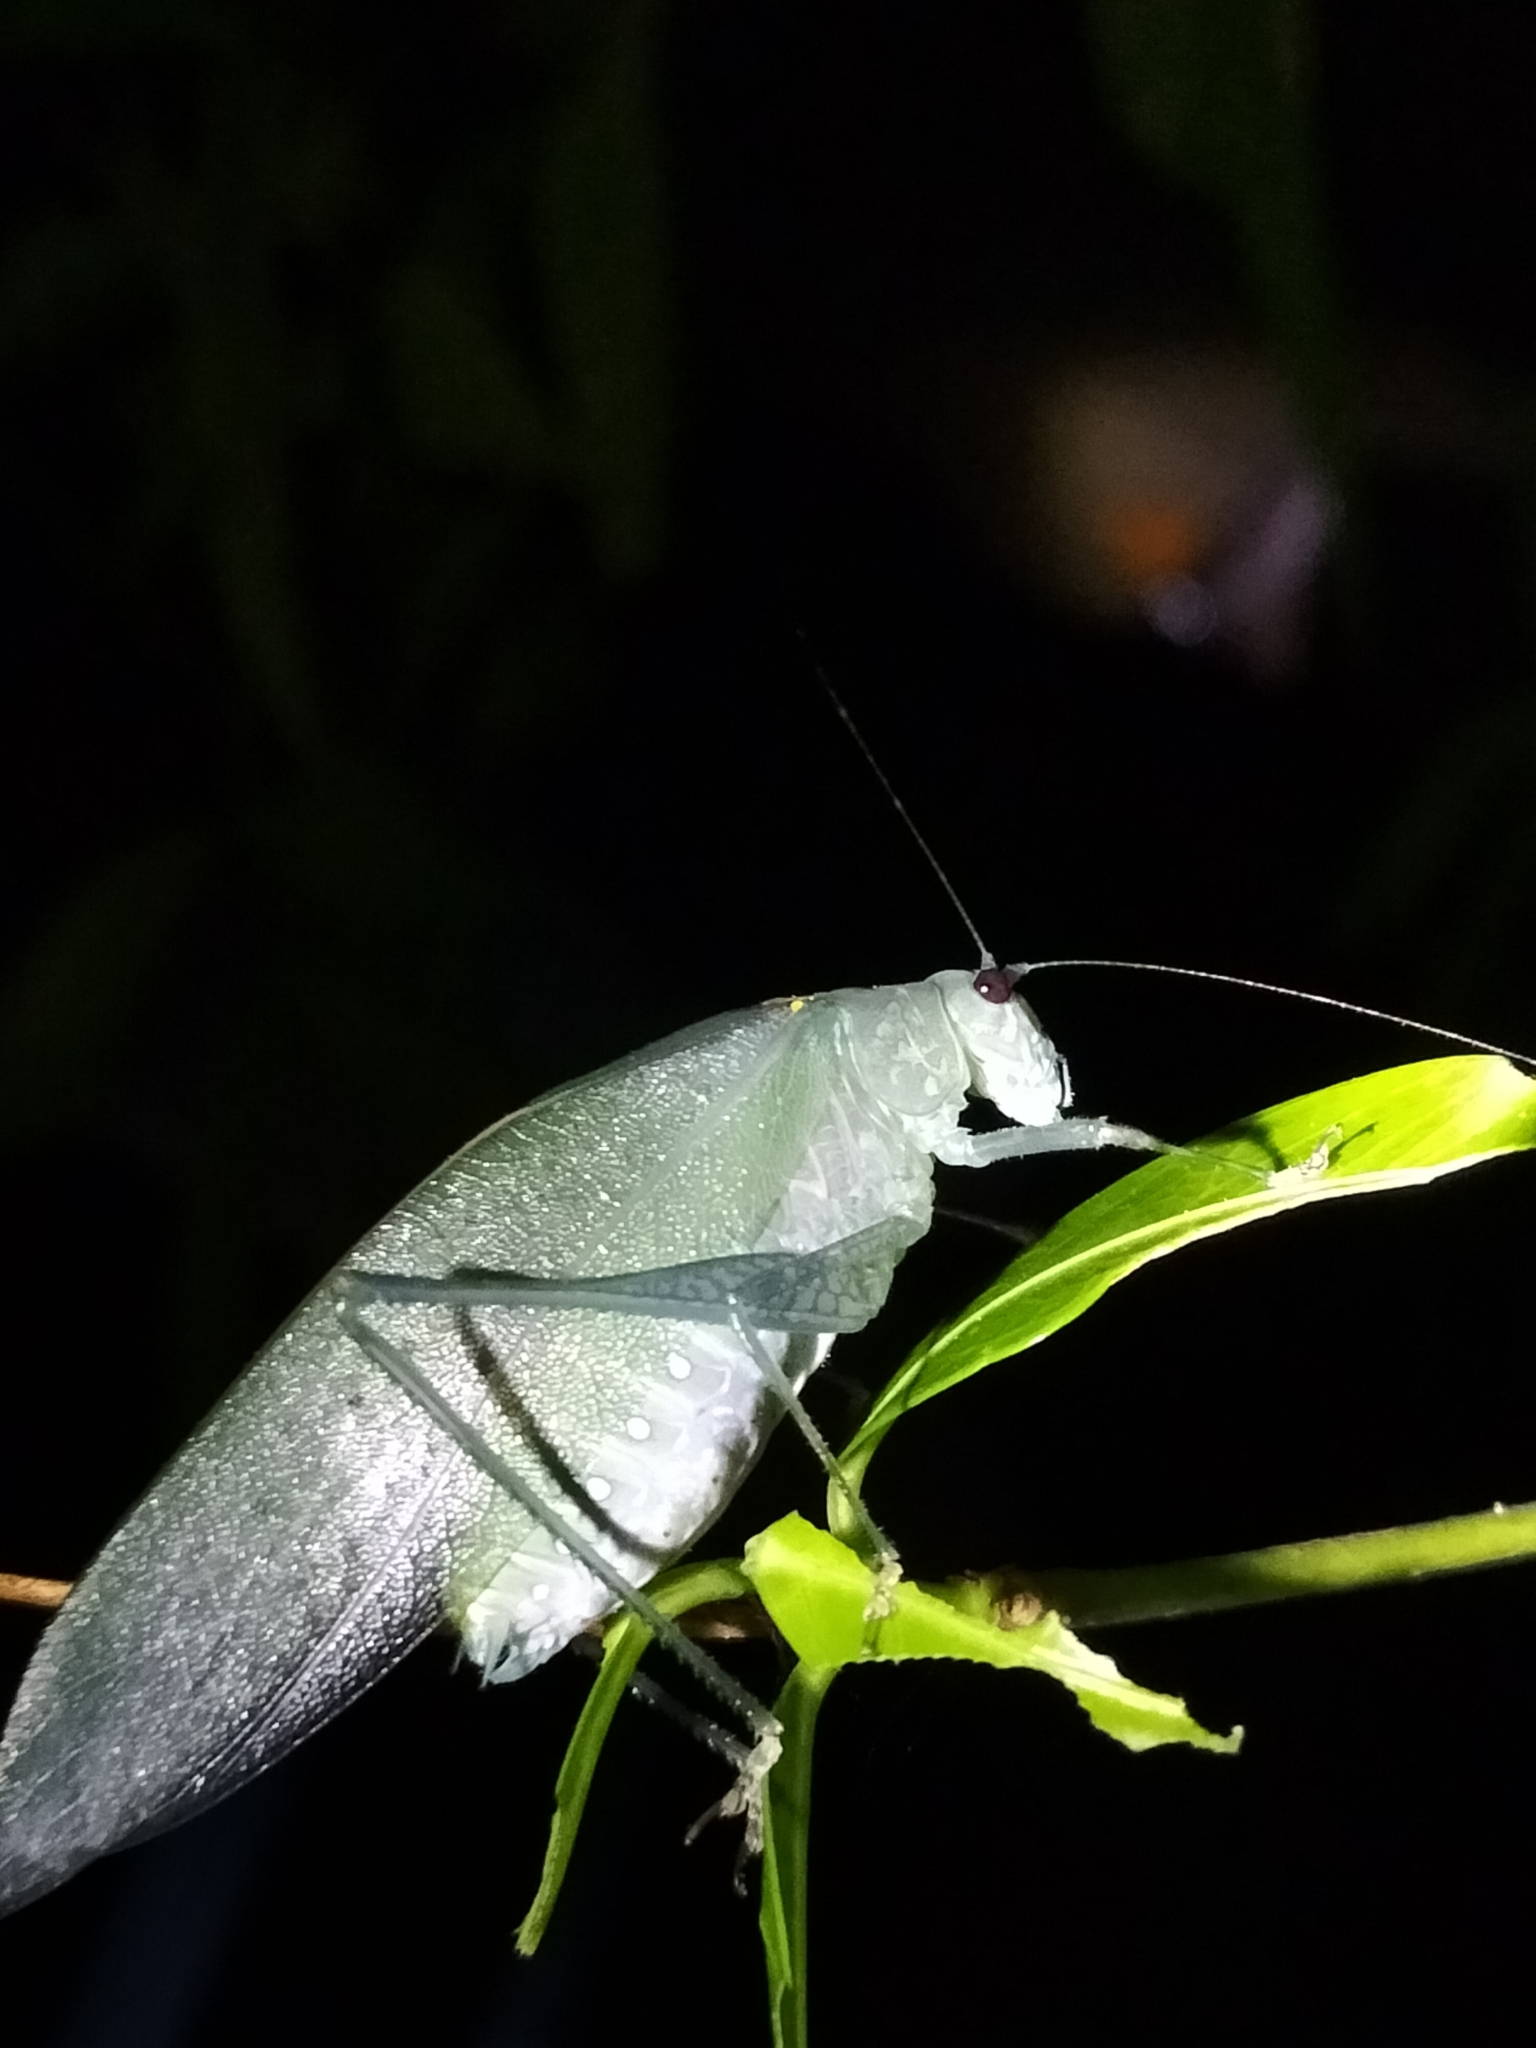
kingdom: Animalia
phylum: Arthropoda
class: Insecta
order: Orthoptera
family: Tettigoniidae
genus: Caedicia
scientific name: Caedicia webberi
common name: Webber's caedicia
